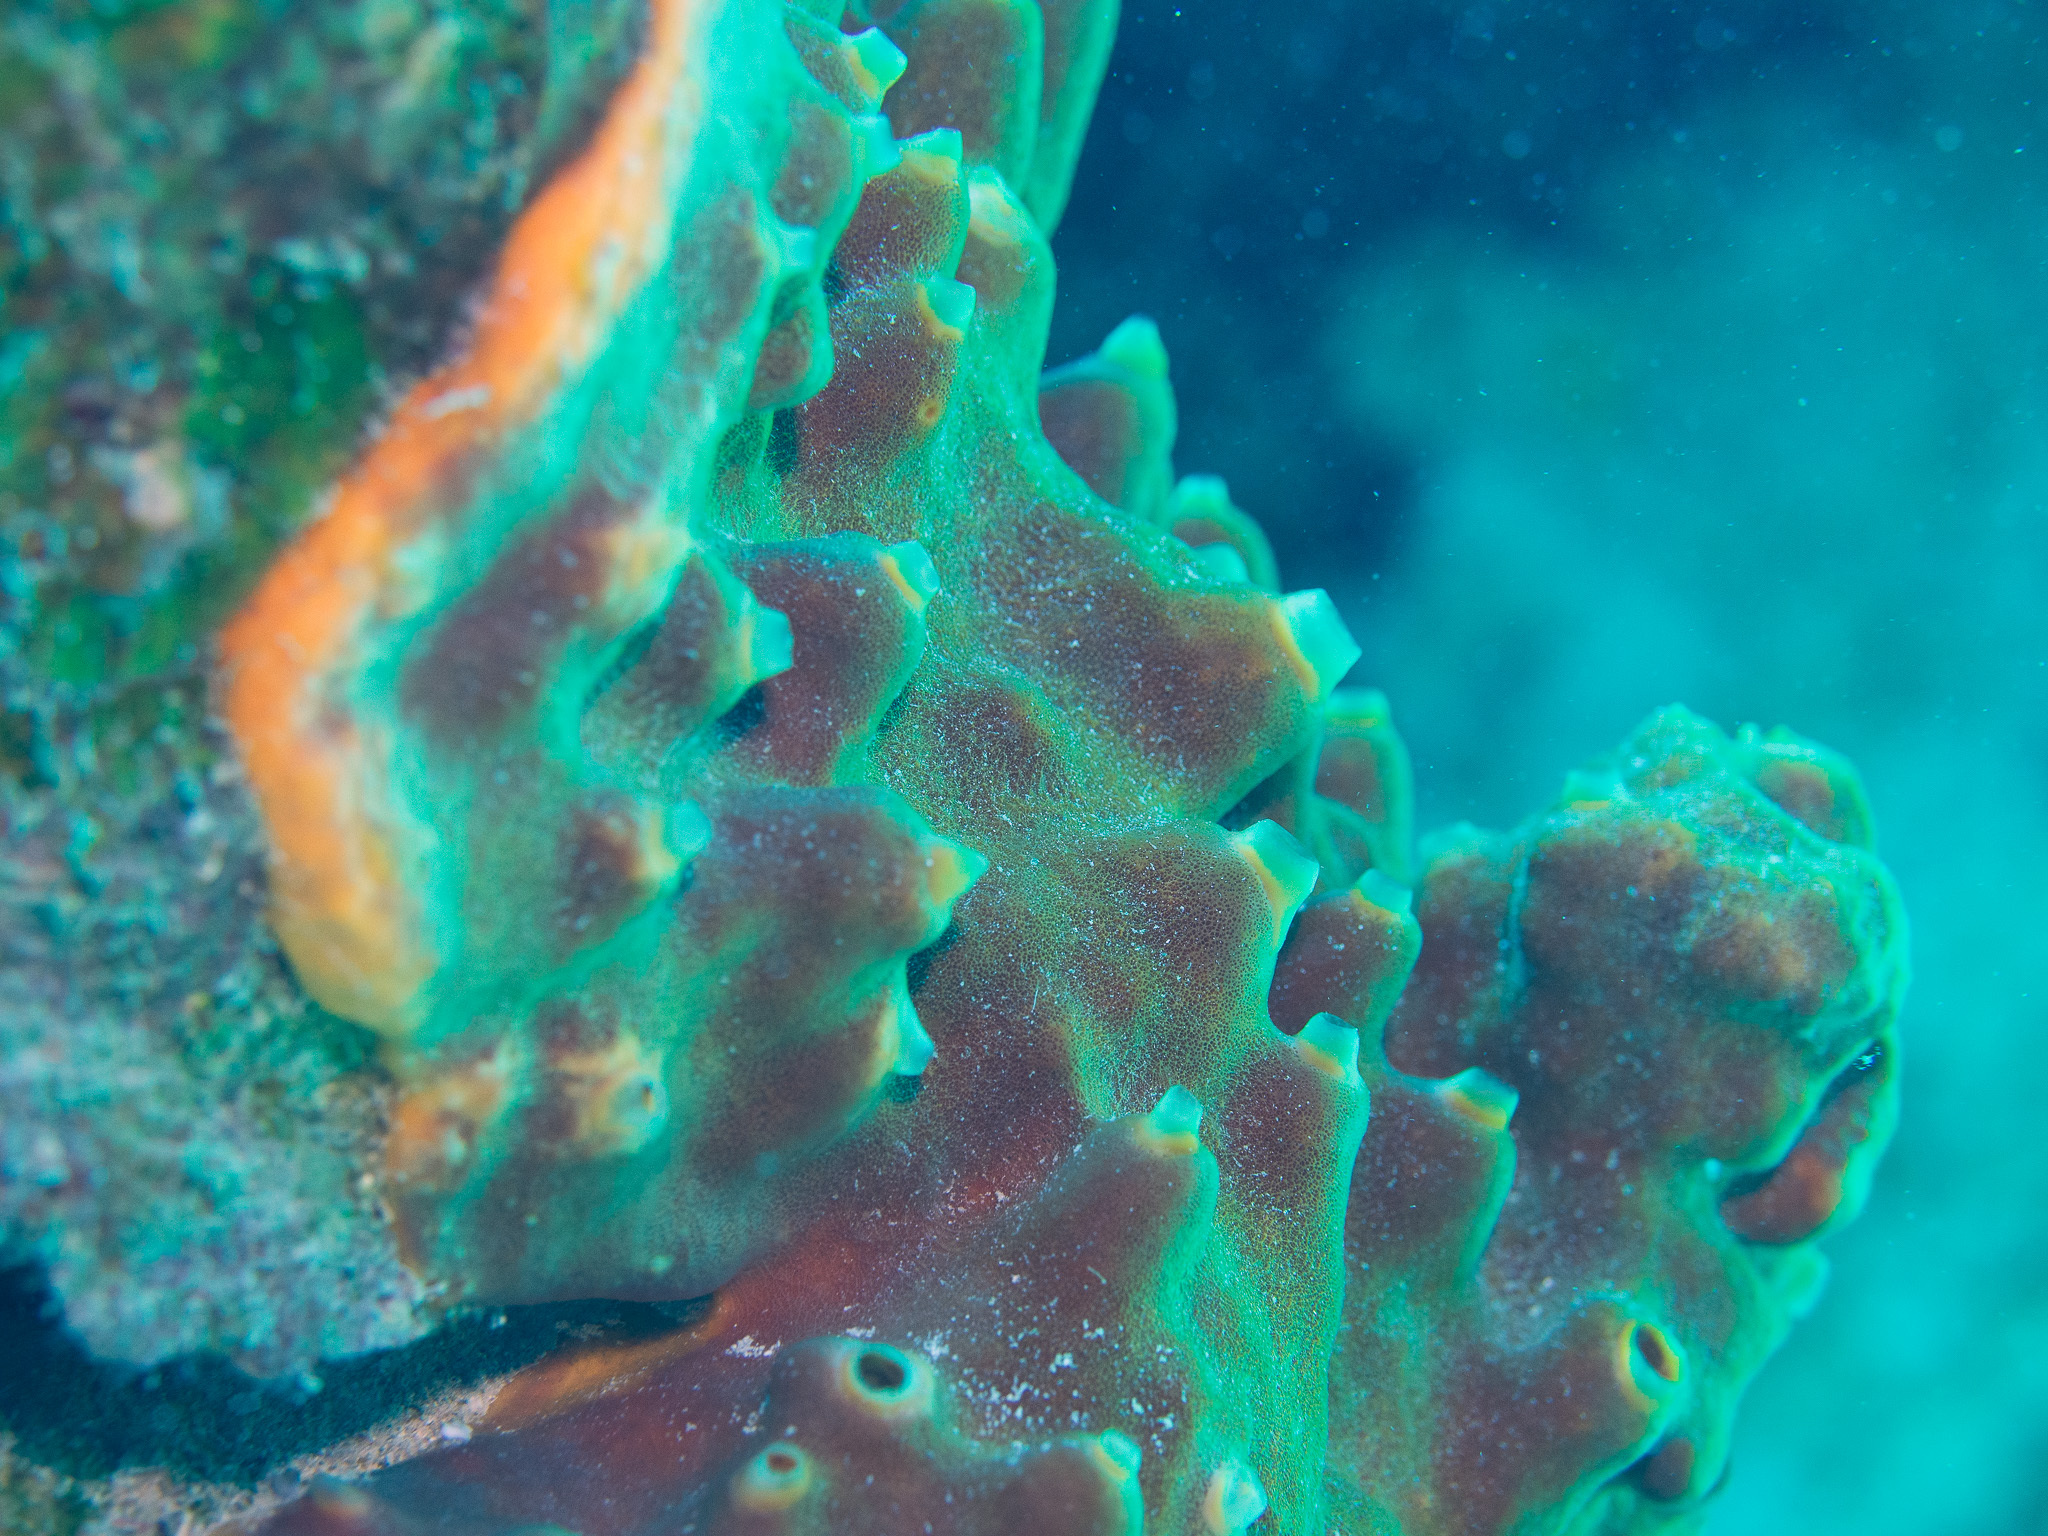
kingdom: Animalia
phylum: Porifera
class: Demospongiae
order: Axinellida
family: Raspailiidae
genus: Ectyoplasia
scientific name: Ectyoplasia ferox
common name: Brown encrusting octopus sponge
